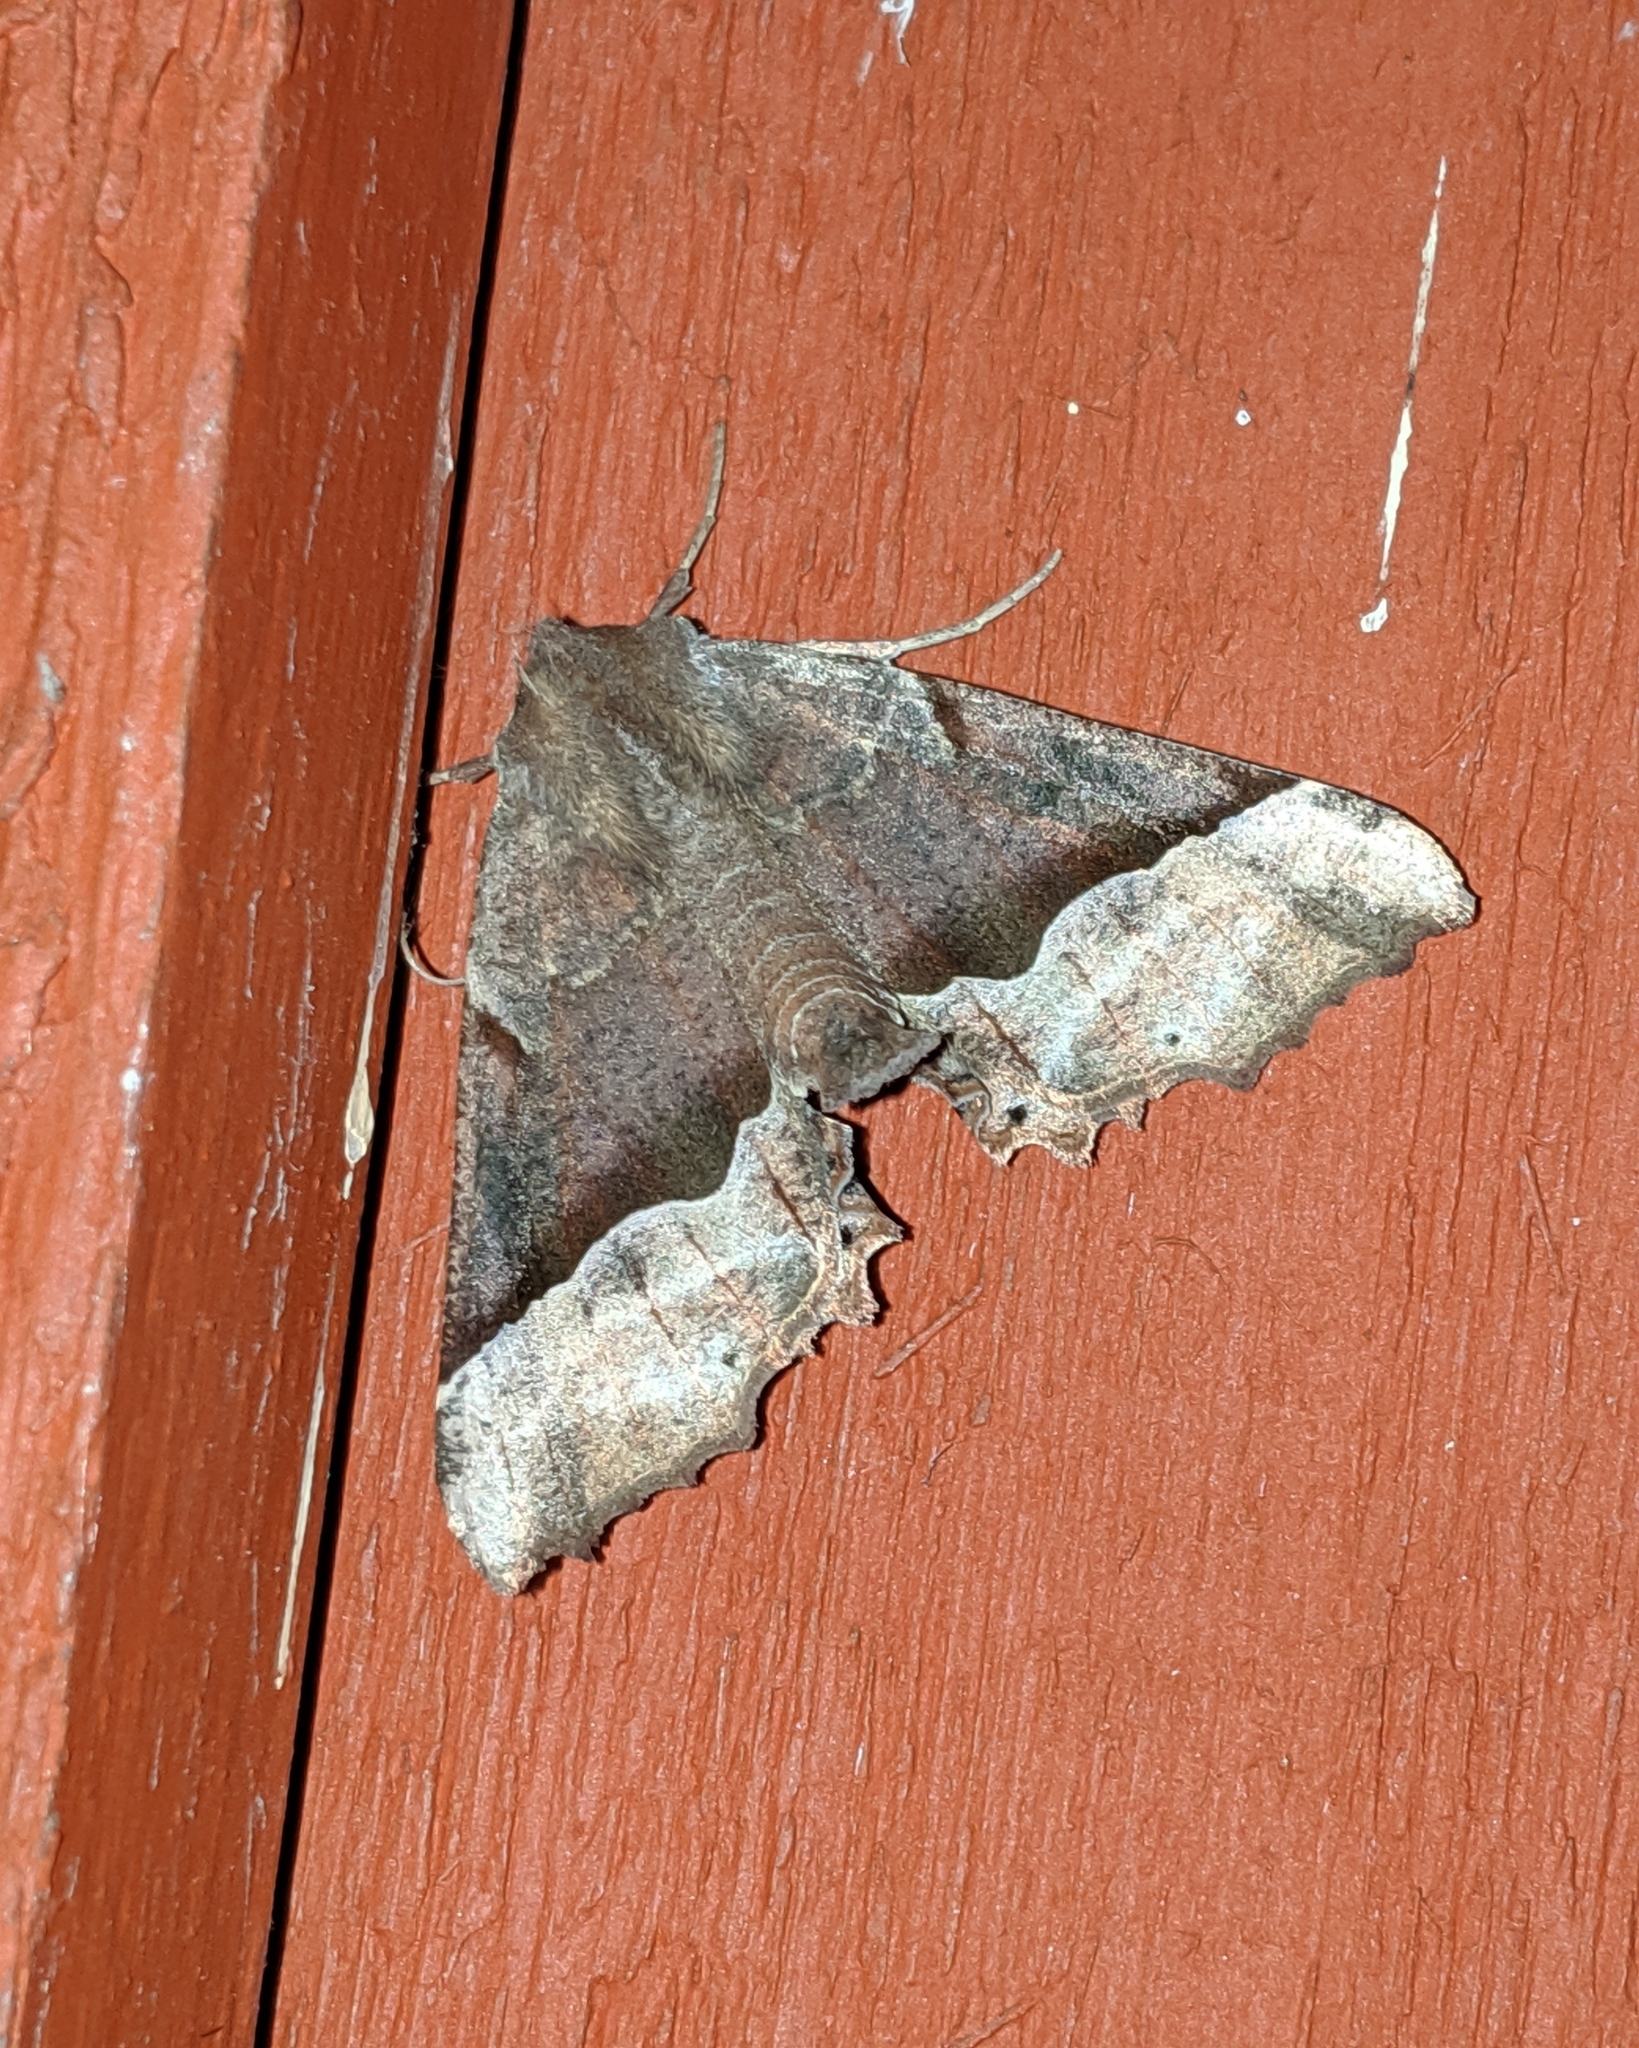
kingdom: Animalia
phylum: Arthropoda
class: Insecta
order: Lepidoptera
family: Geometridae
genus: Pero
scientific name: Pero mizon
